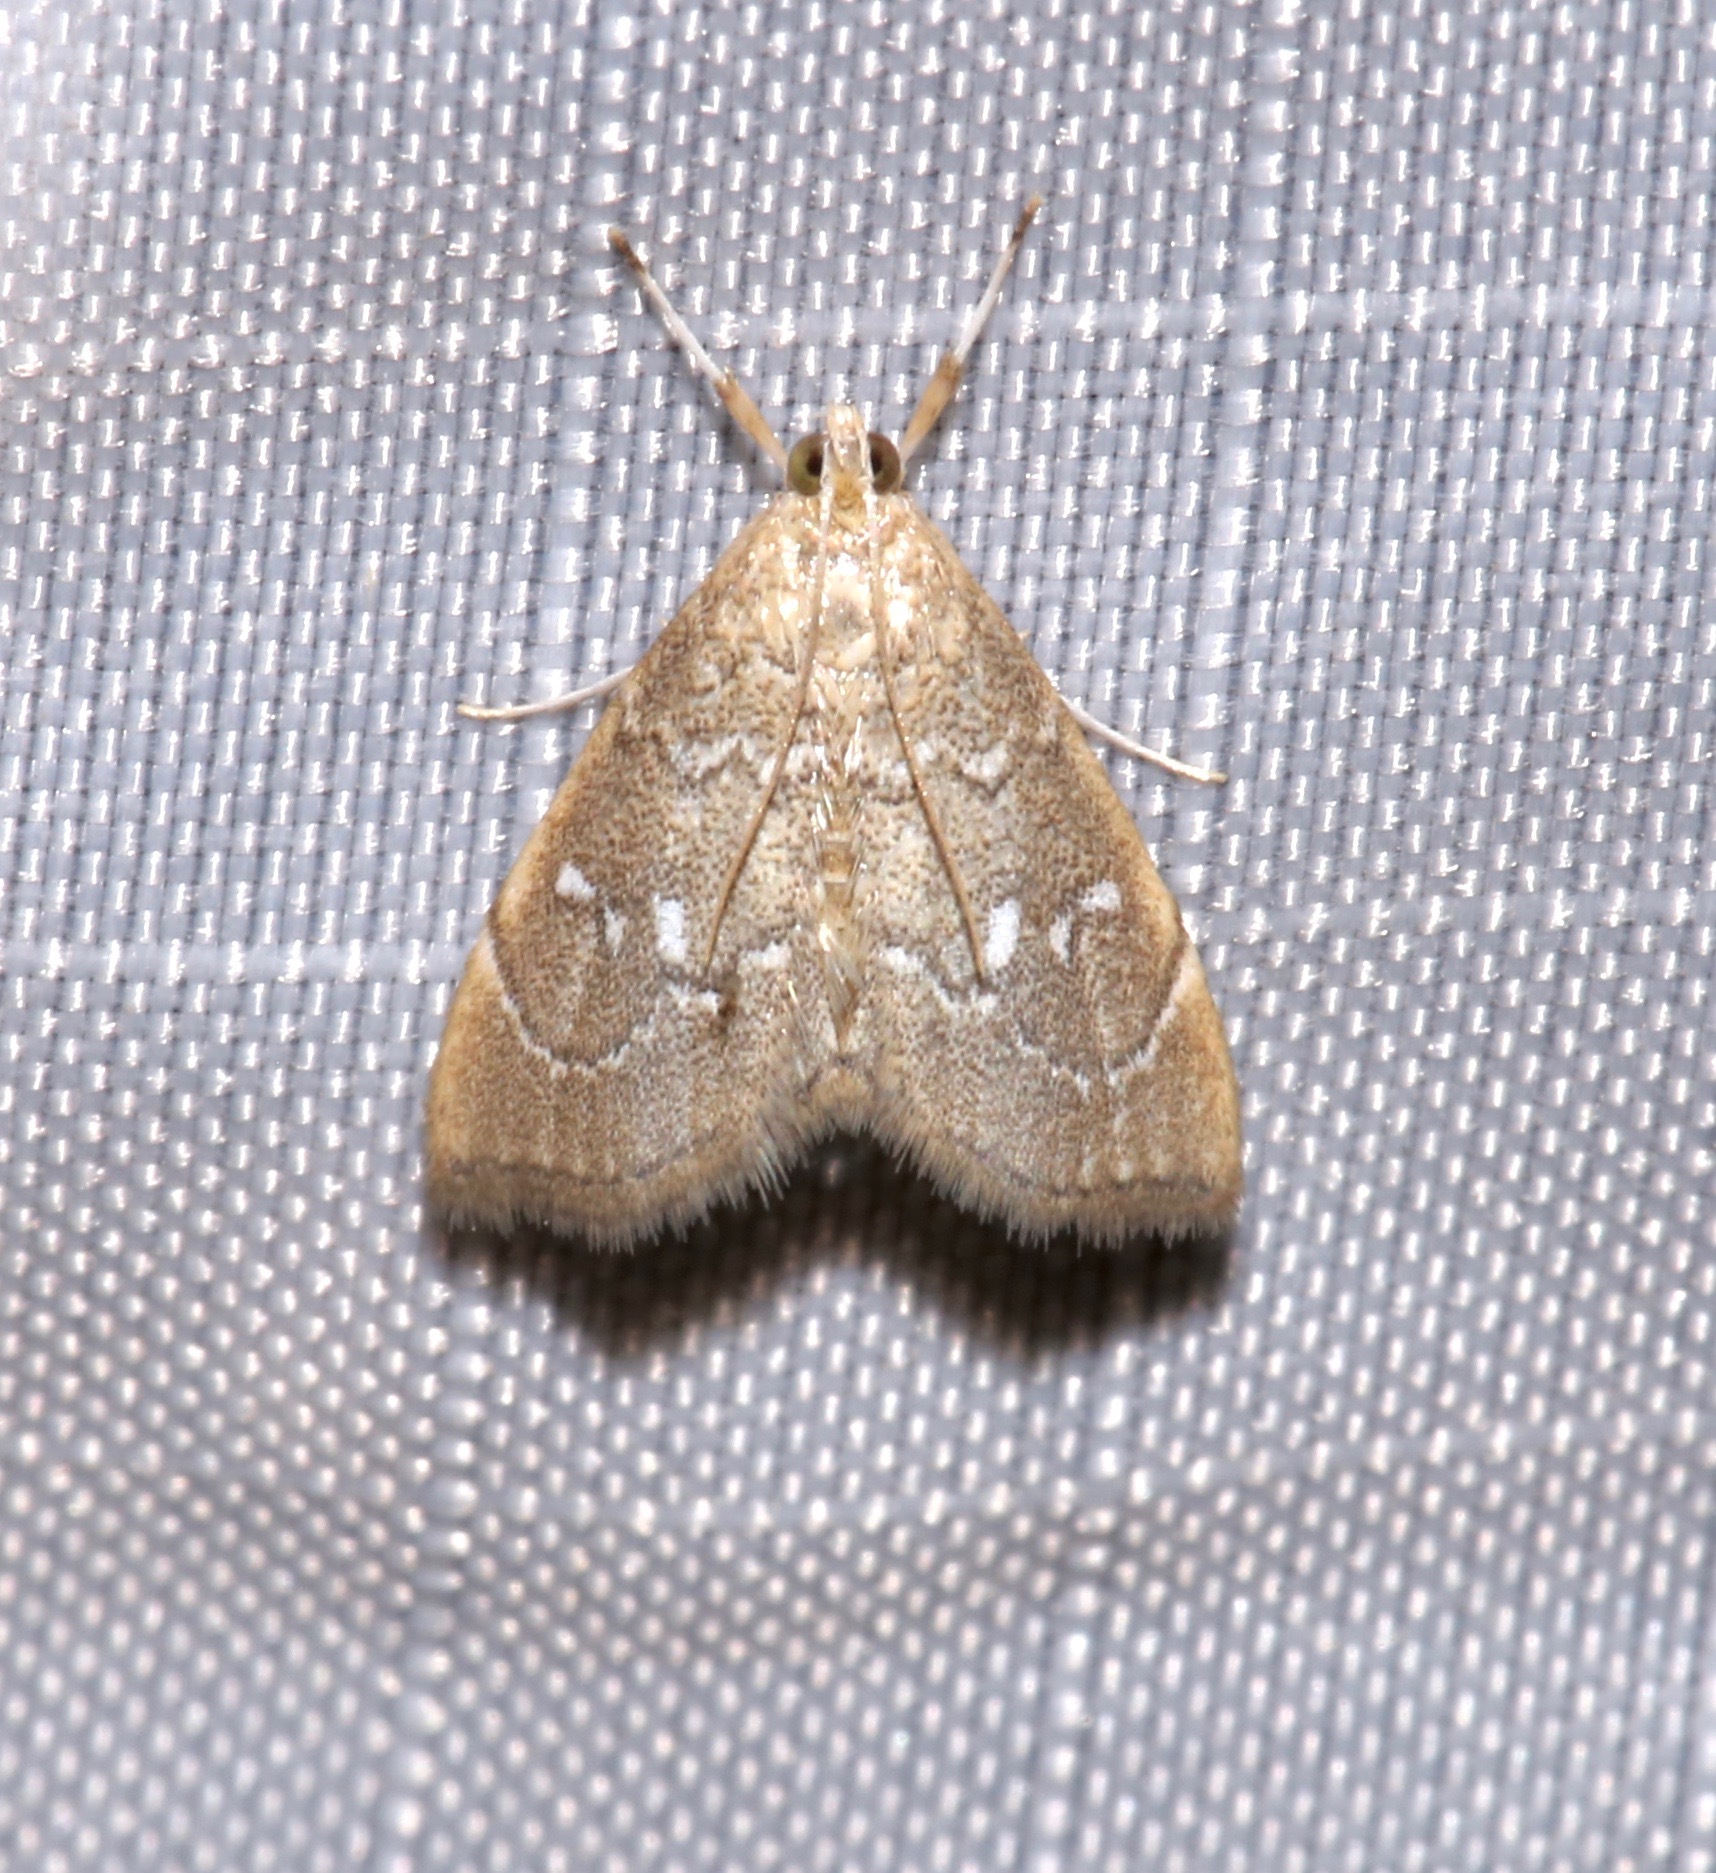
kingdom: Animalia
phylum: Arthropoda
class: Insecta
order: Lepidoptera
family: Crambidae
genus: Nephrogramma
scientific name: Nephrogramma separata
